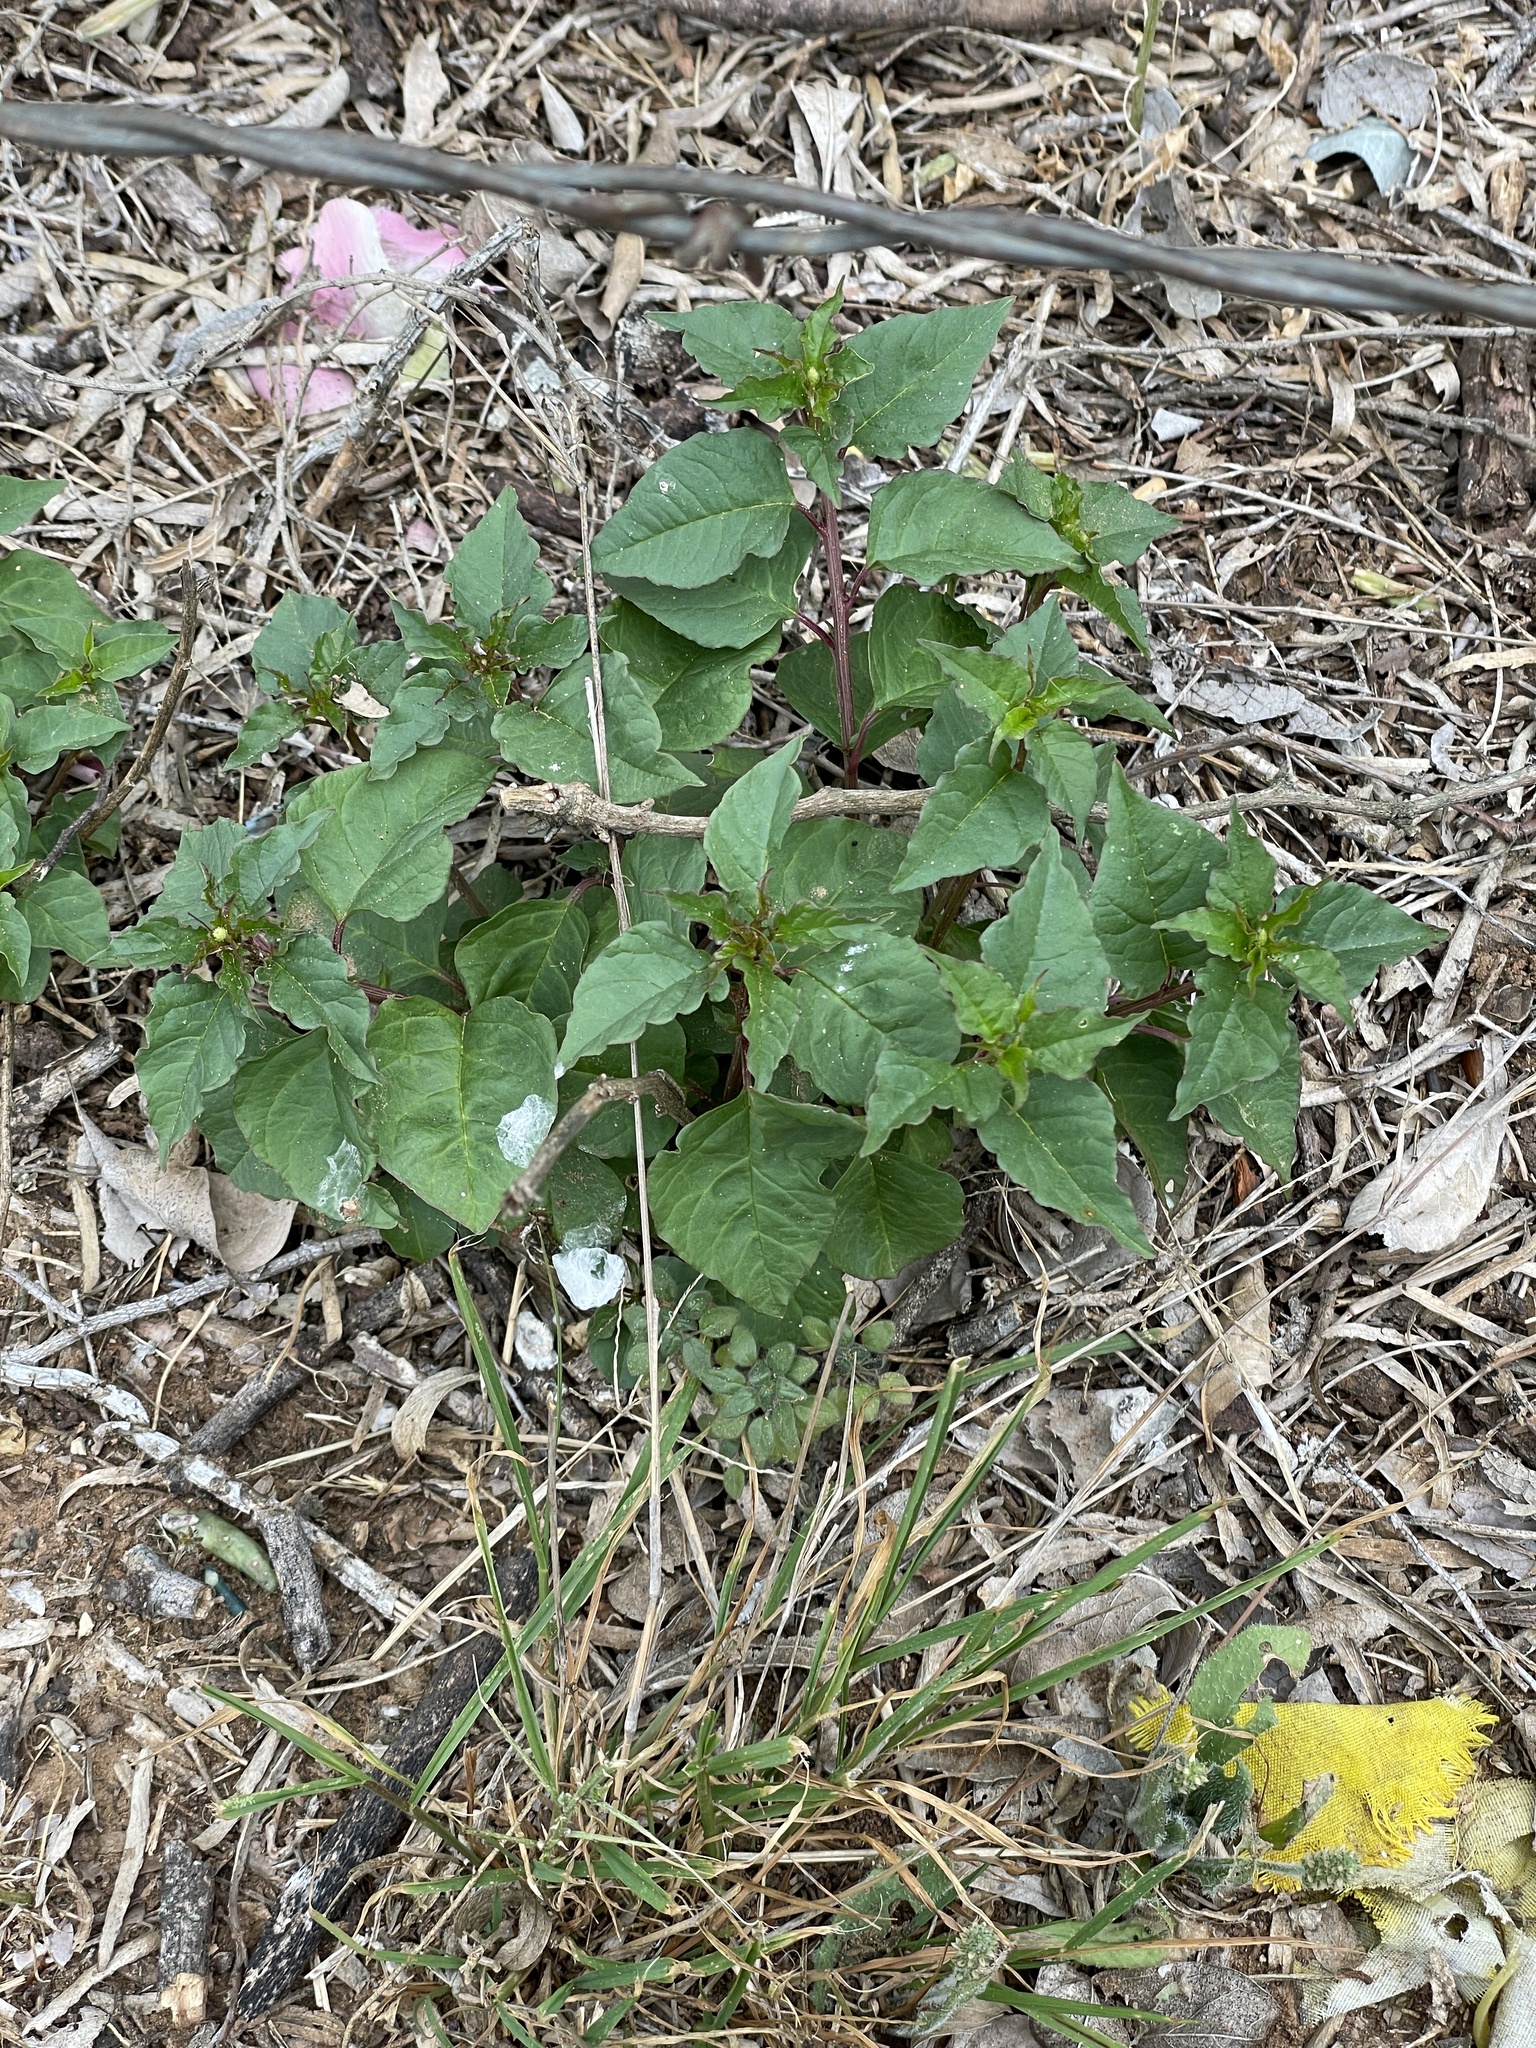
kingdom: Plantae
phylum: Tracheophyta
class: Magnoliopsida
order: Caryophyllales
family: Phytolaccaceae
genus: Rivina
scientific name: Rivina humilis
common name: Rougeplant
